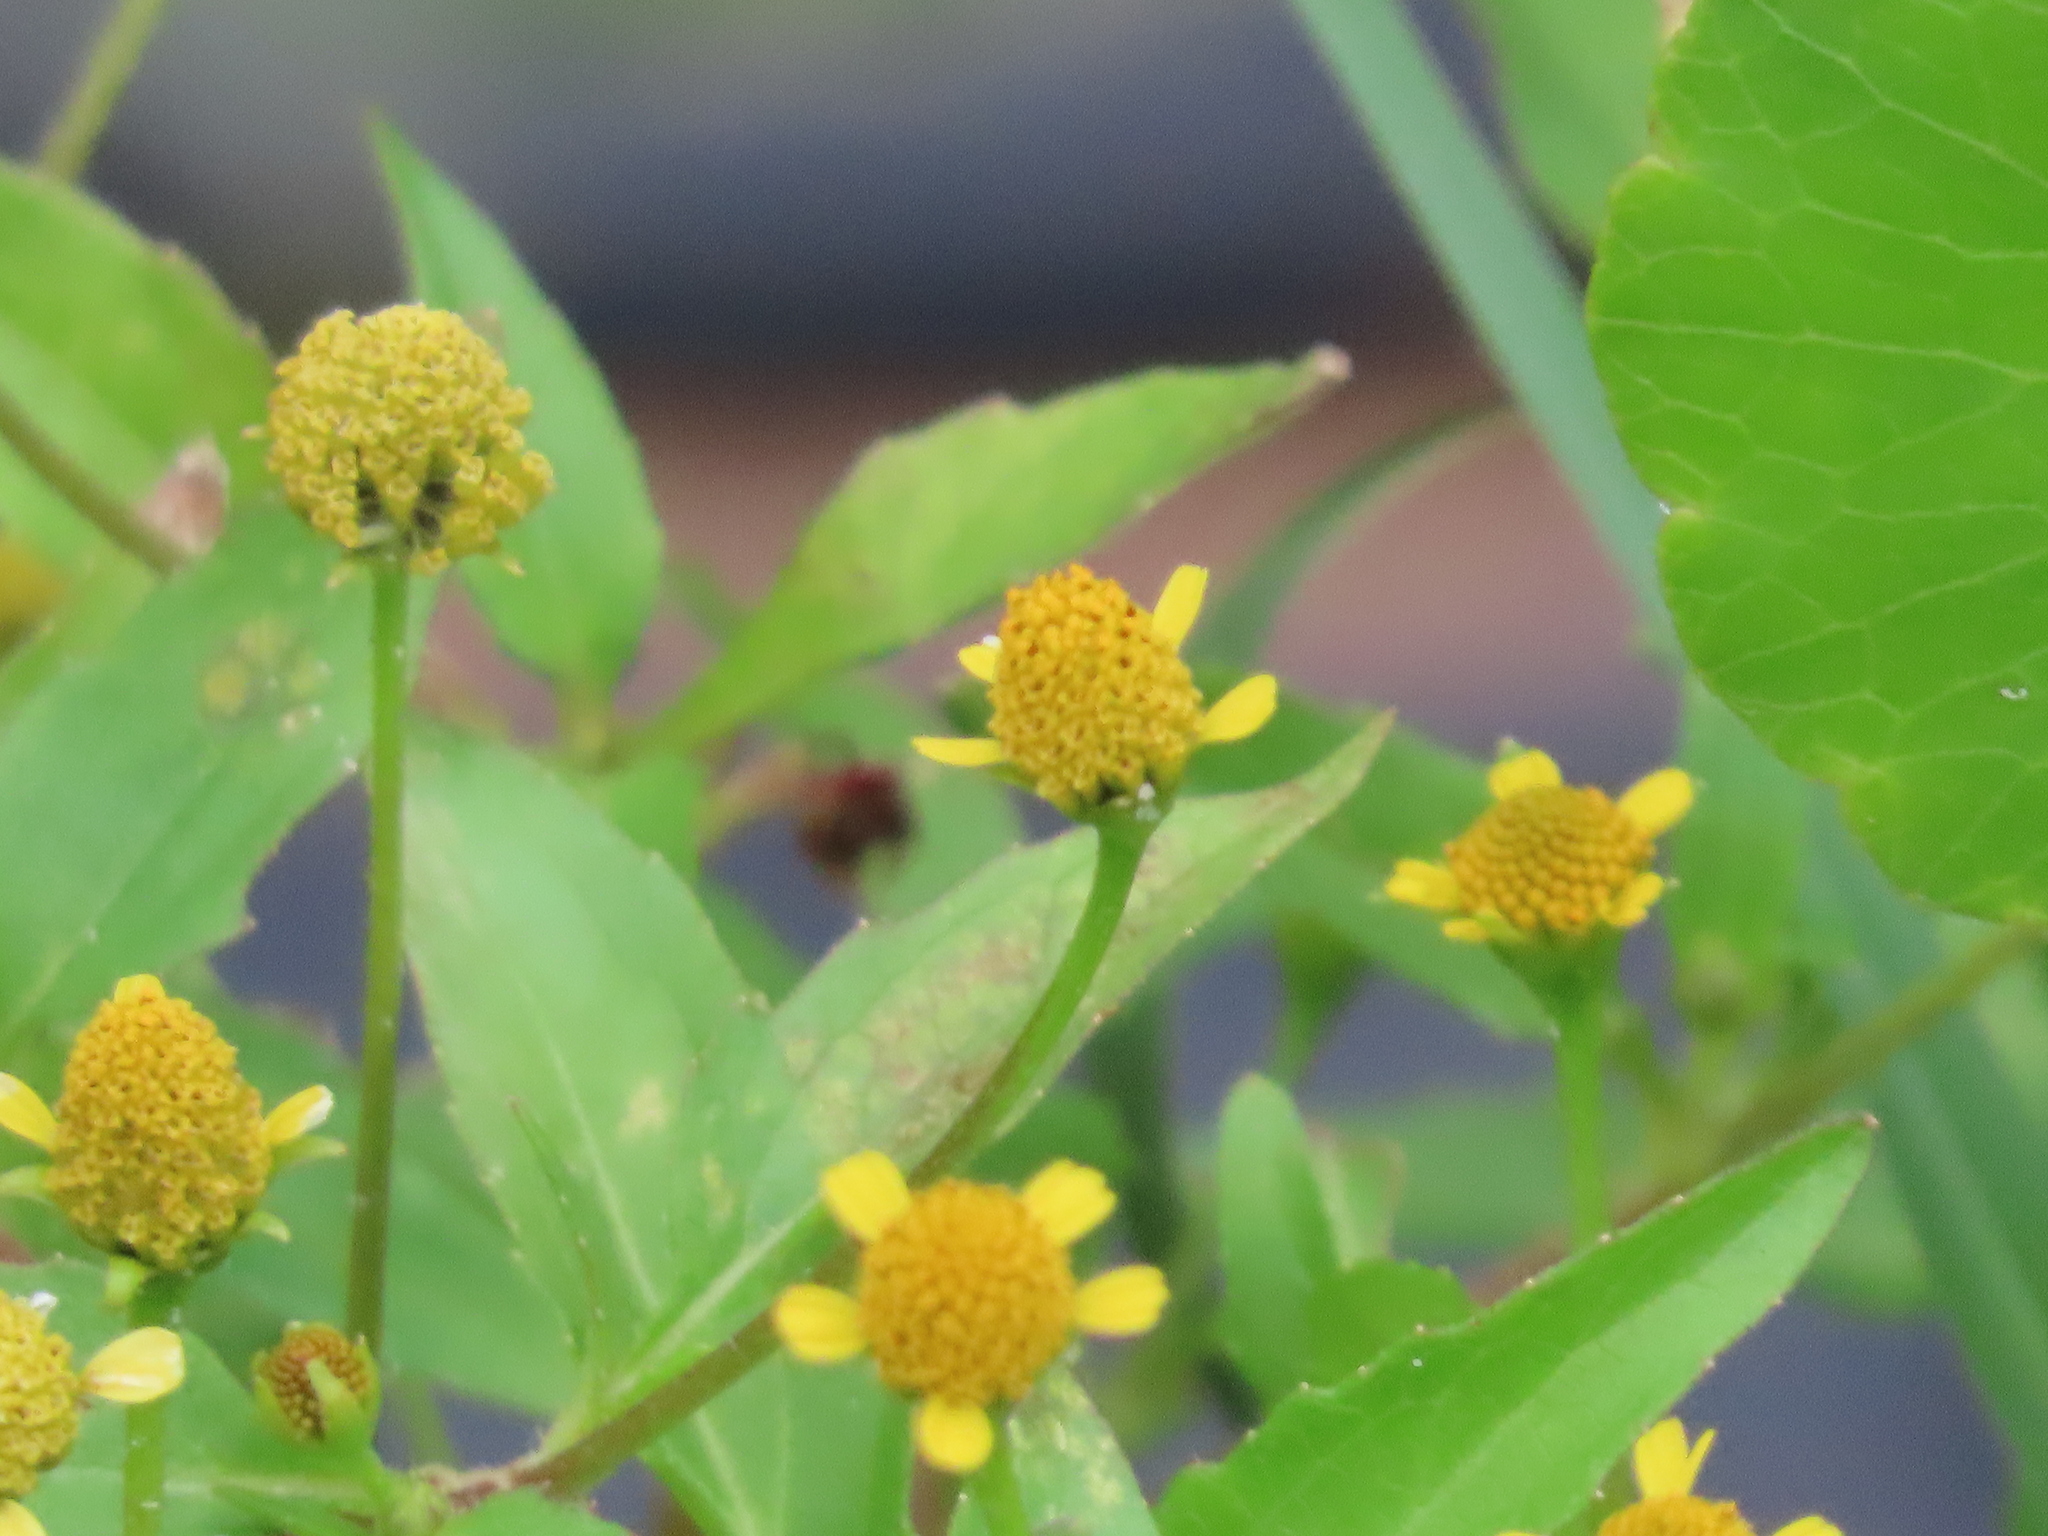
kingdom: Plantae
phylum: Tracheophyta
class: Magnoliopsida
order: Asterales
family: Asteraceae
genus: Acmella
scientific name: Acmella repens
